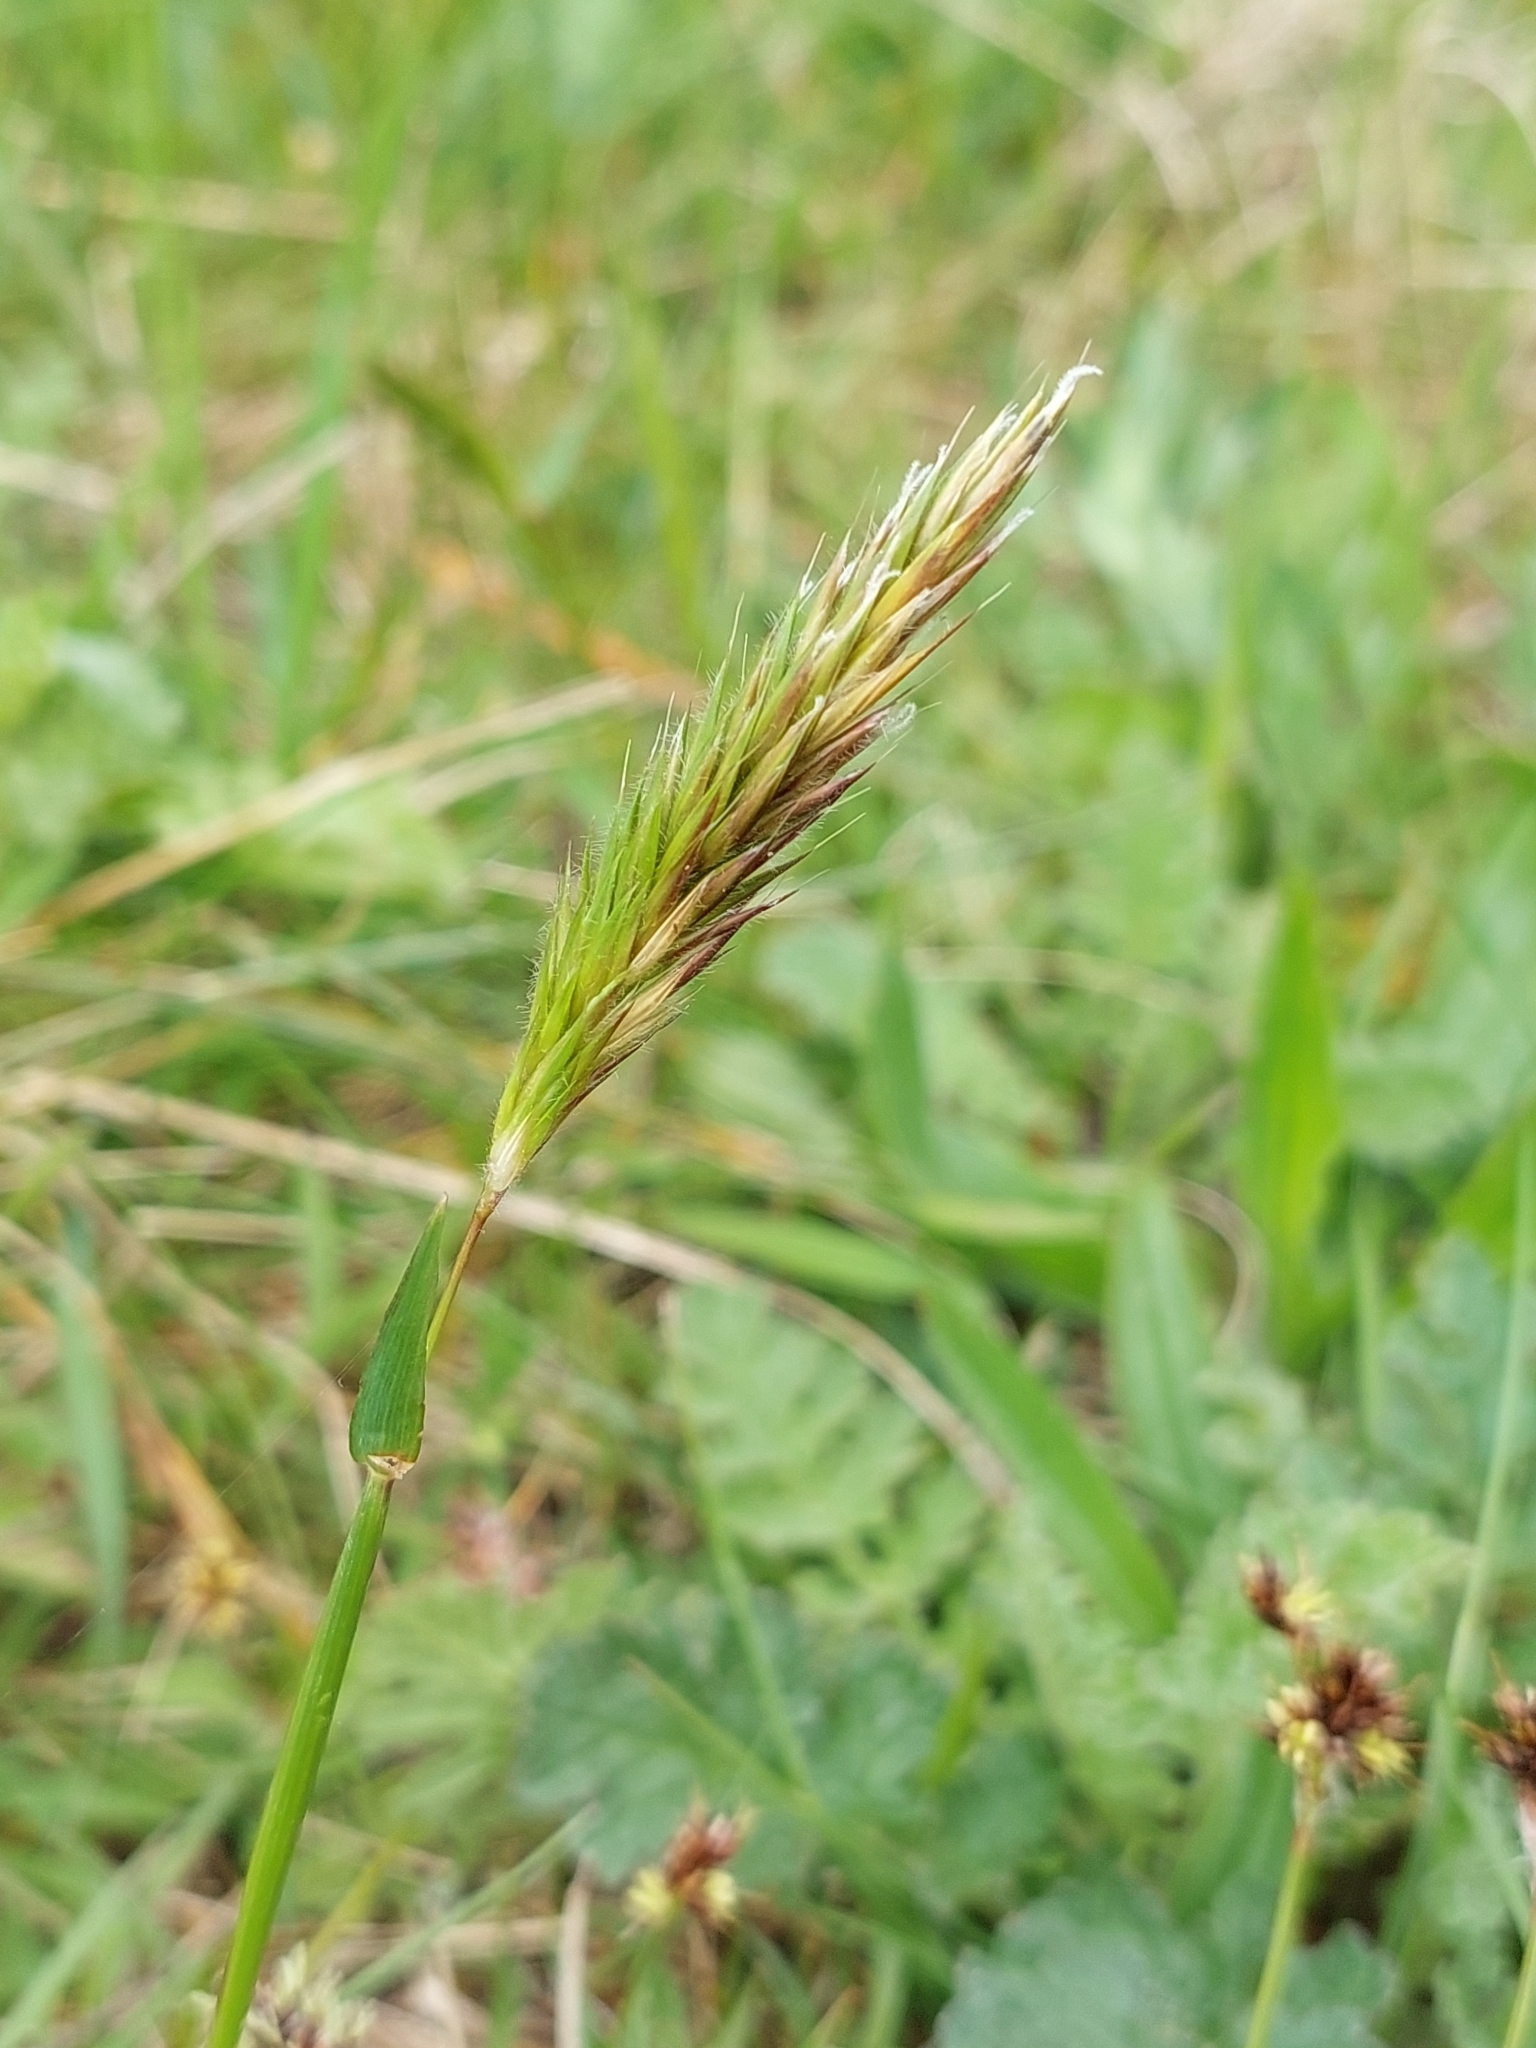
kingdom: Plantae
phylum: Tracheophyta
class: Liliopsida
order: Poales
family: Poaceae
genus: Anthoxanthum
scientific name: Anthoxanthum odoratum
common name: Sweet vernalgrass
